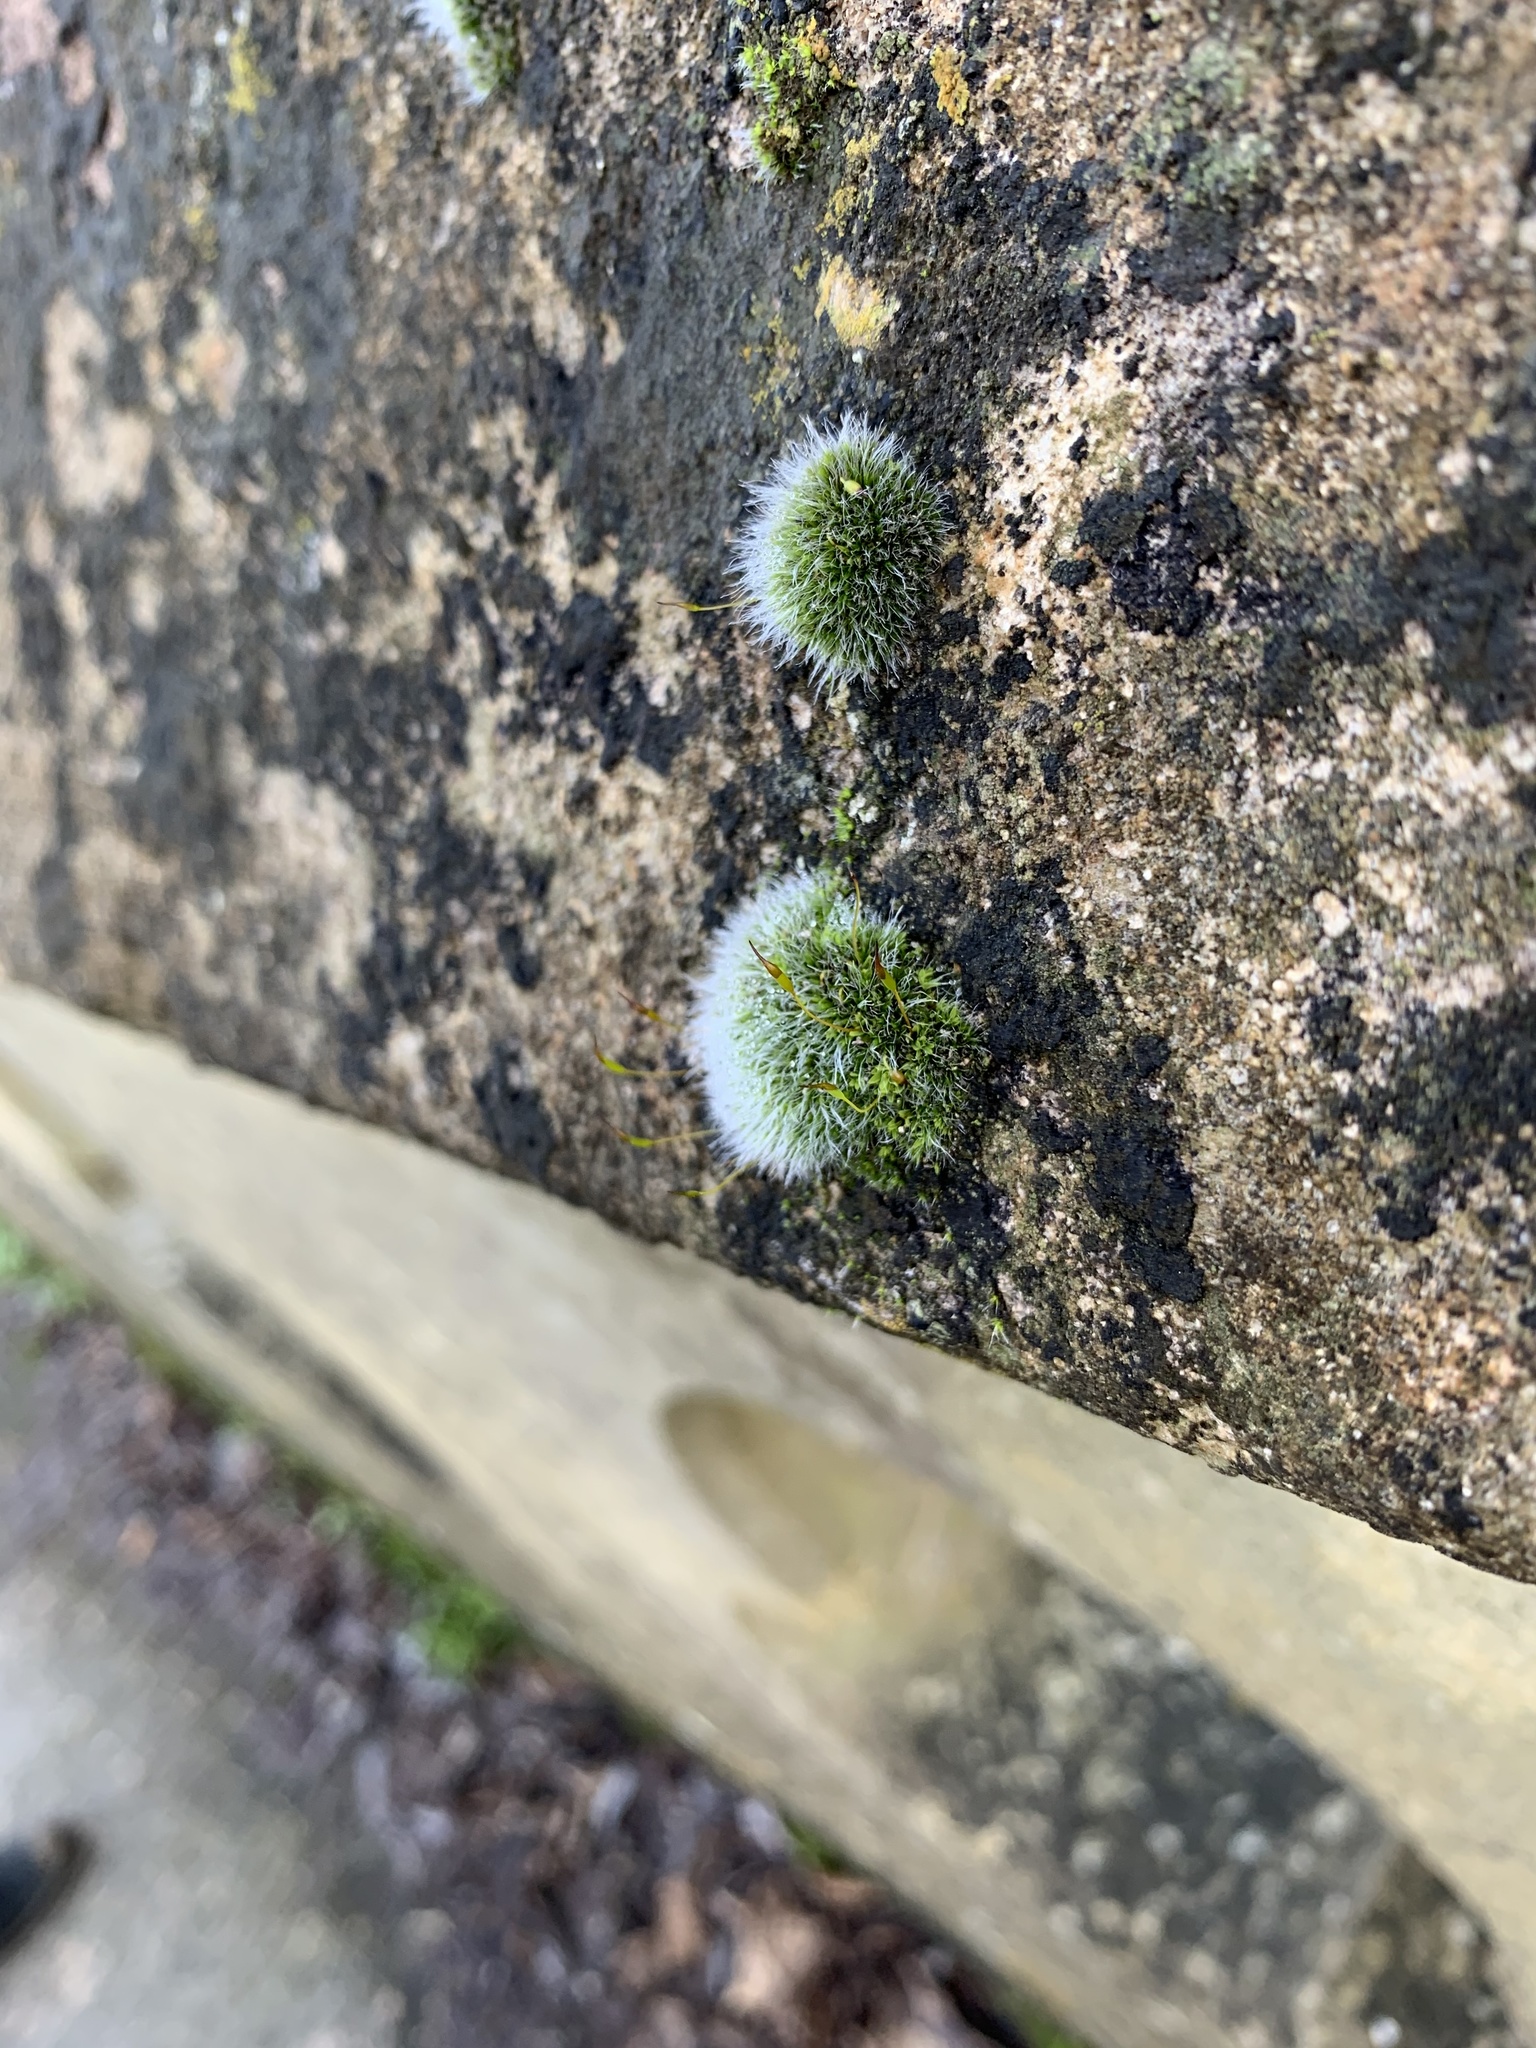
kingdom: Plantae
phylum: Bryophyta
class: Bryopsida
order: Grimmiales
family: Grimmiaceae
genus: Grimmia
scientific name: Grimmia pulvinata
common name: Grey-cushioned grimmia
